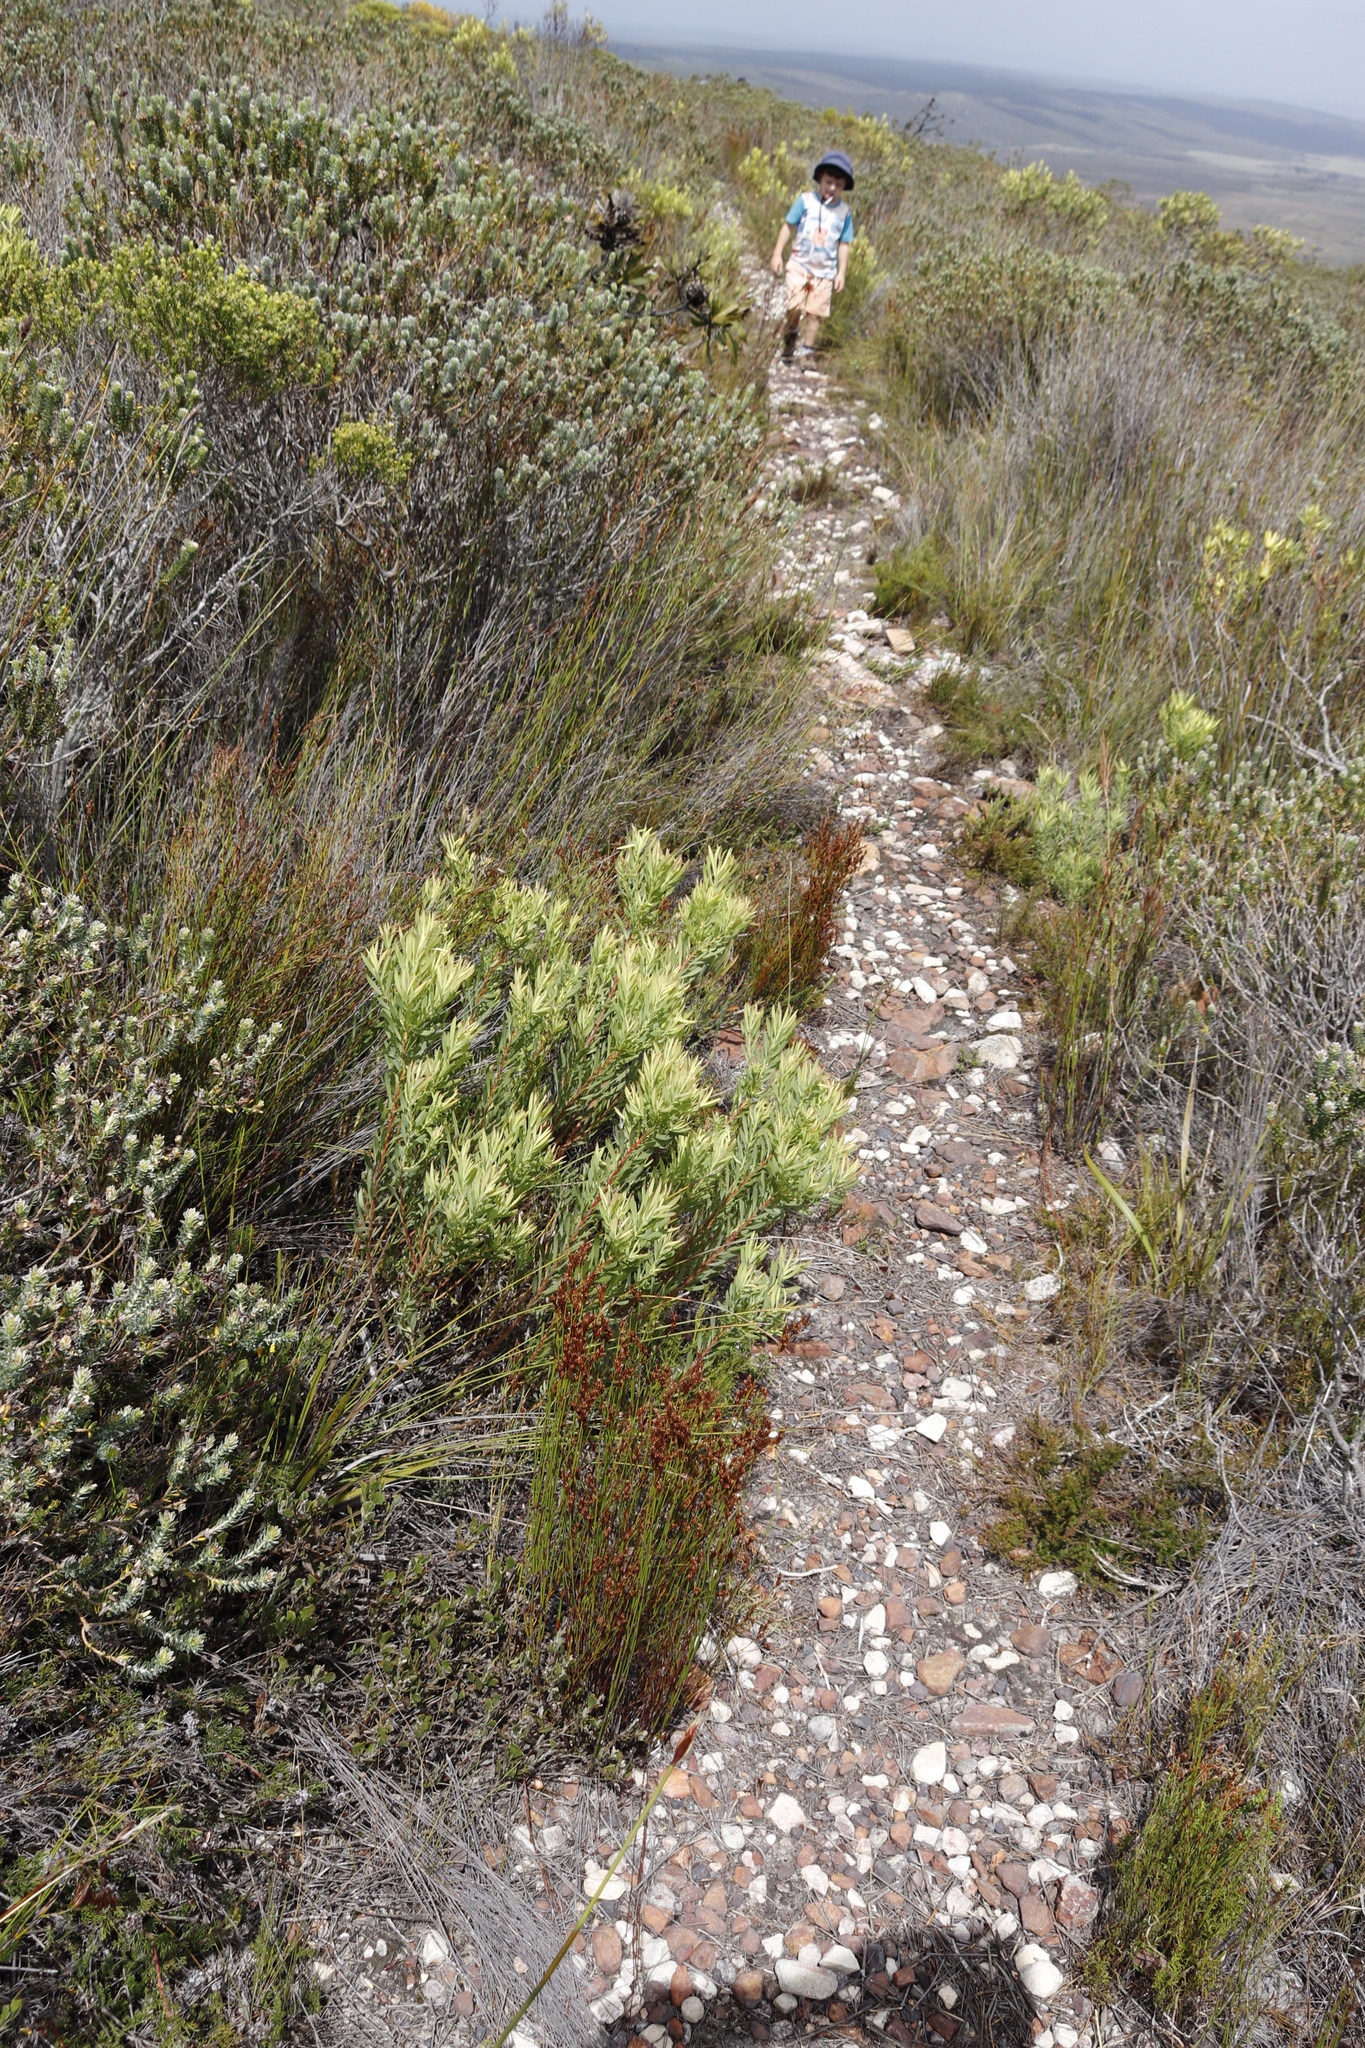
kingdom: Plantae
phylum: Tracheophyta
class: Magnoliopsida
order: Proteales
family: Proteaceae
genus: Leucadendron
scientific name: Leucadendron salignum
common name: Common sunshine conebush
